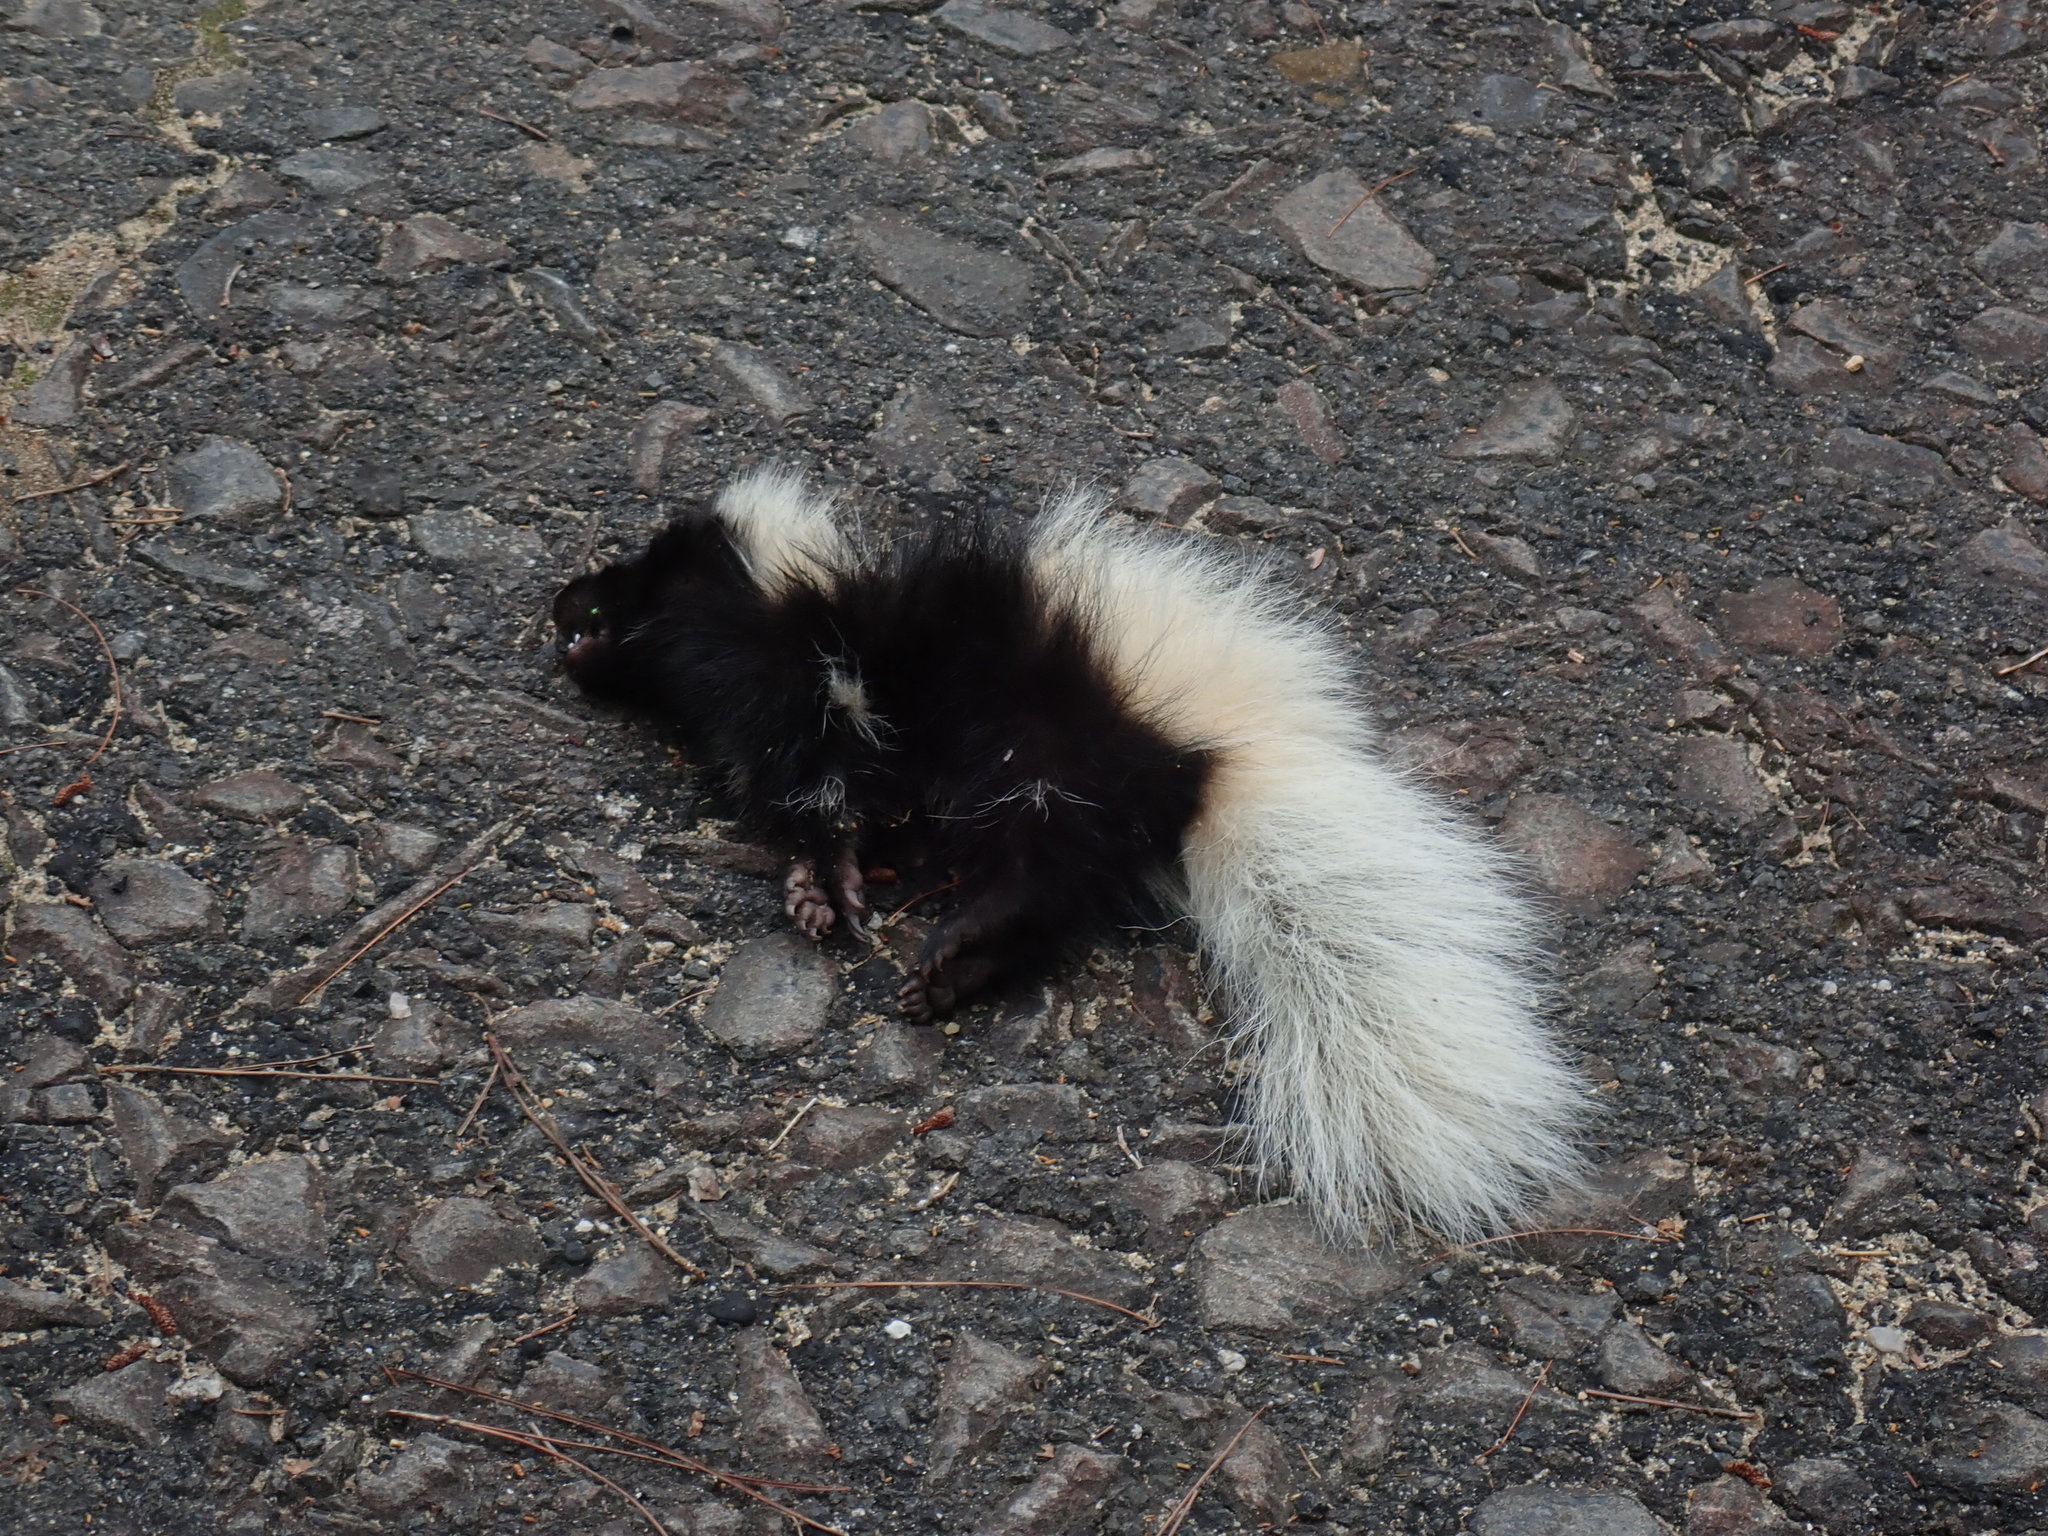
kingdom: Animalia
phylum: Chordata
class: Mammalia
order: Carnivora
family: Mephitidae
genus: Mephitis
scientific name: Mephitis mephitis
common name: Striped skunk
